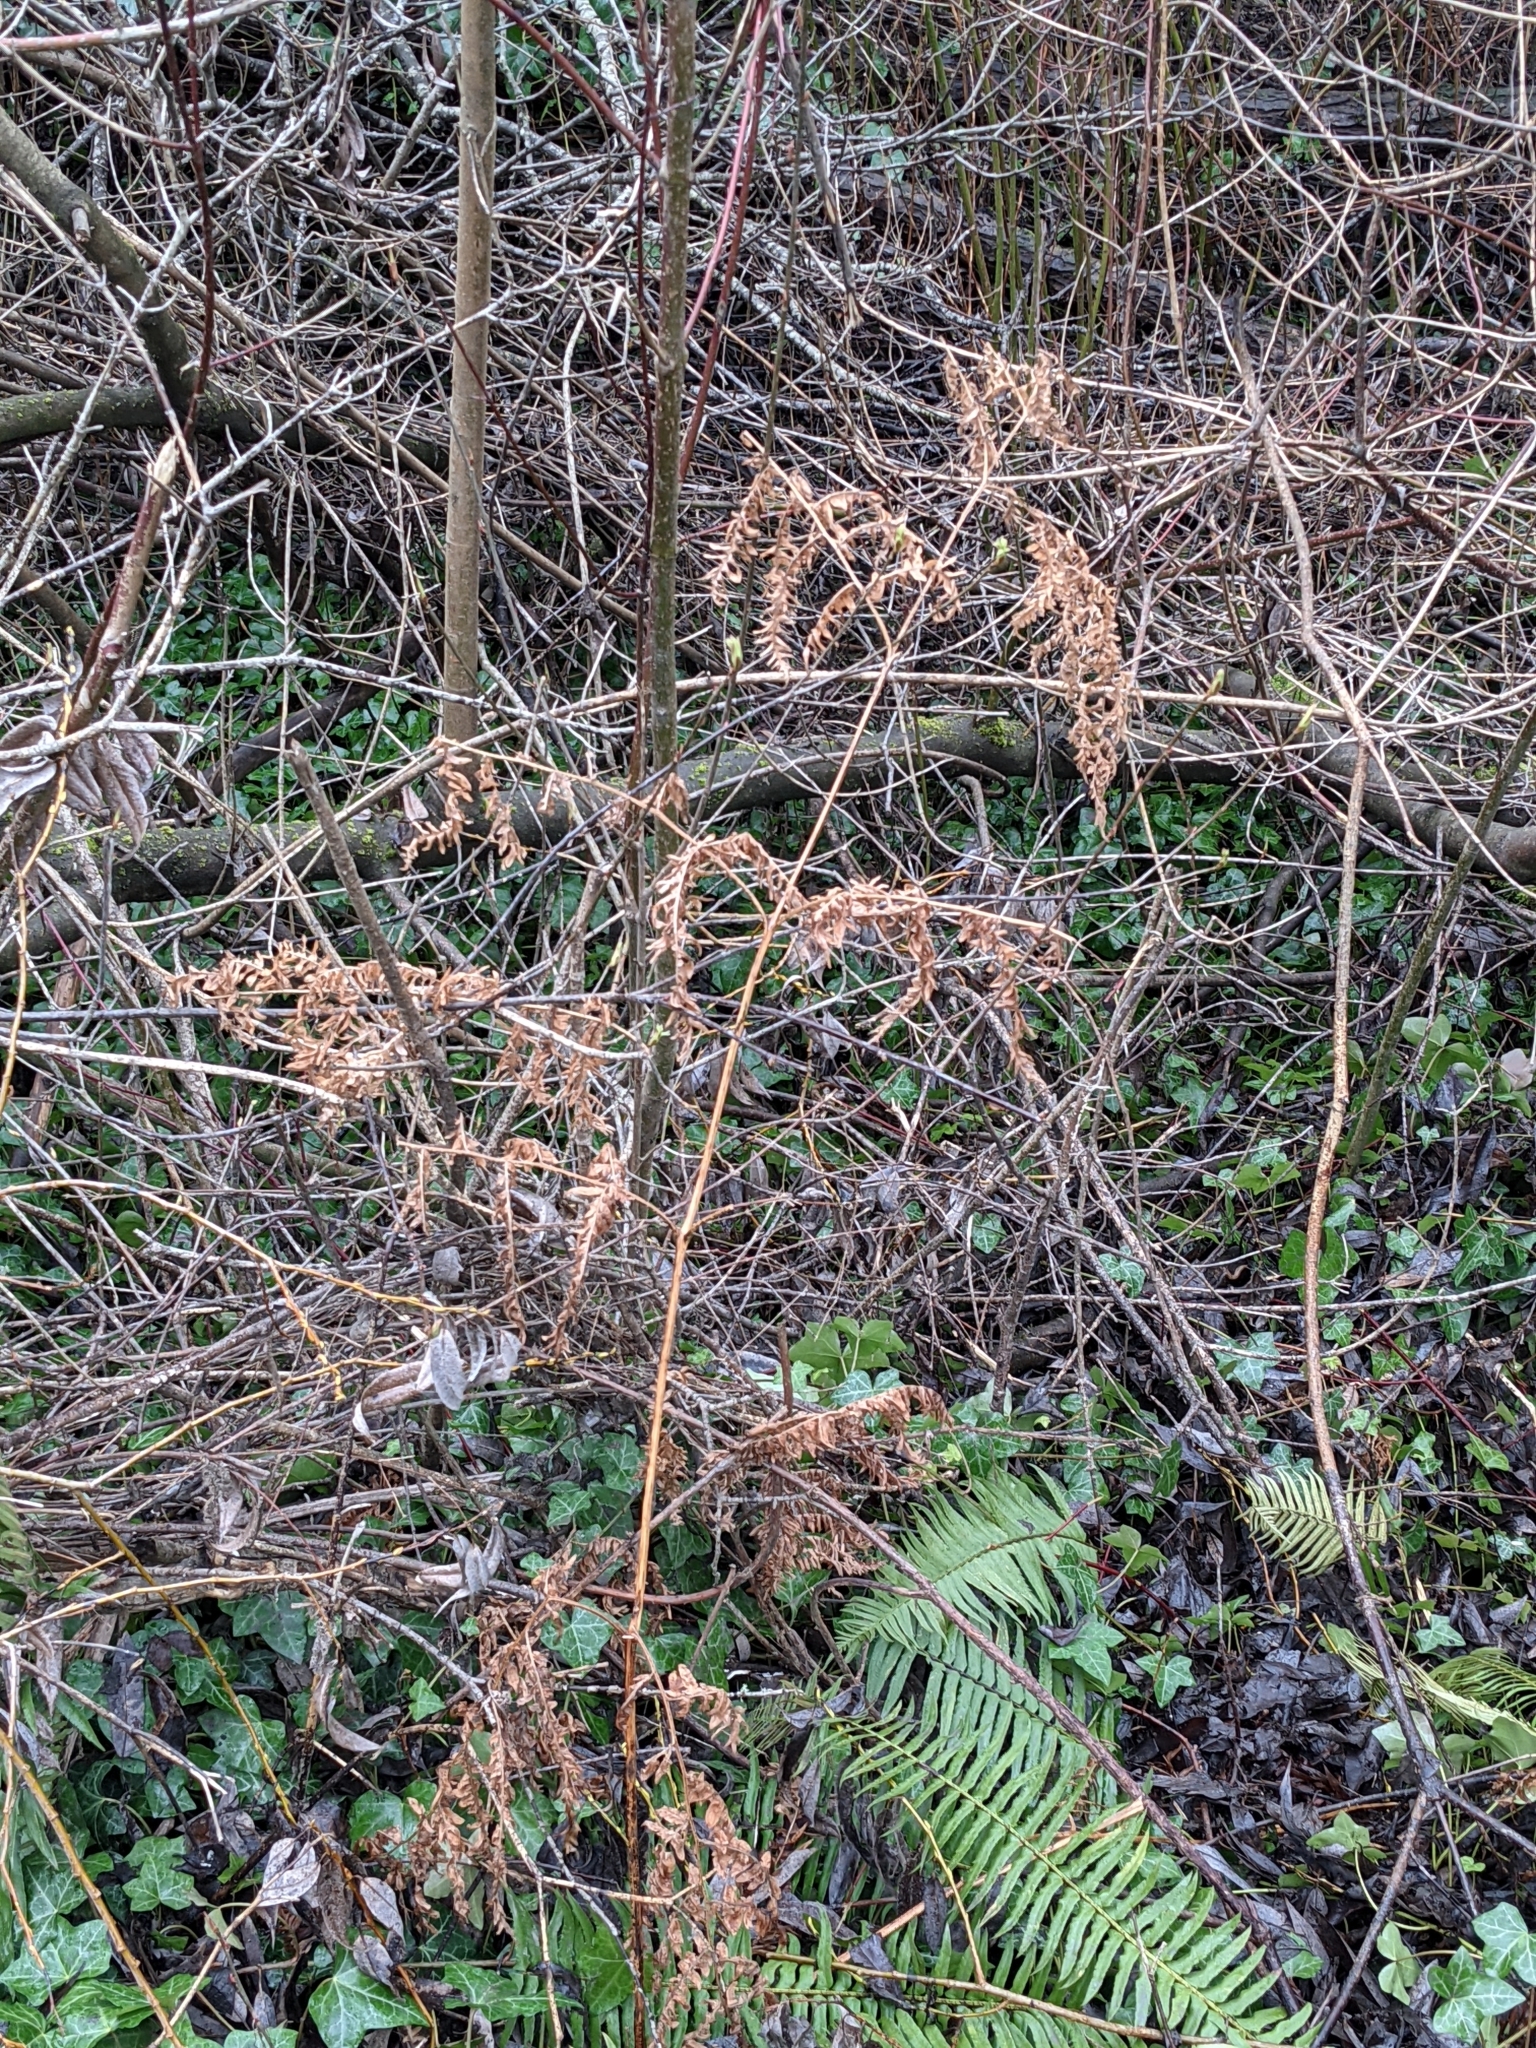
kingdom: Plantae
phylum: Tracheophyta
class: Polypodiopsida
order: Polypodiales
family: Dennstaedtiaceae
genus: Pteridium
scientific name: Pteridium aquilinum
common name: Bracken
